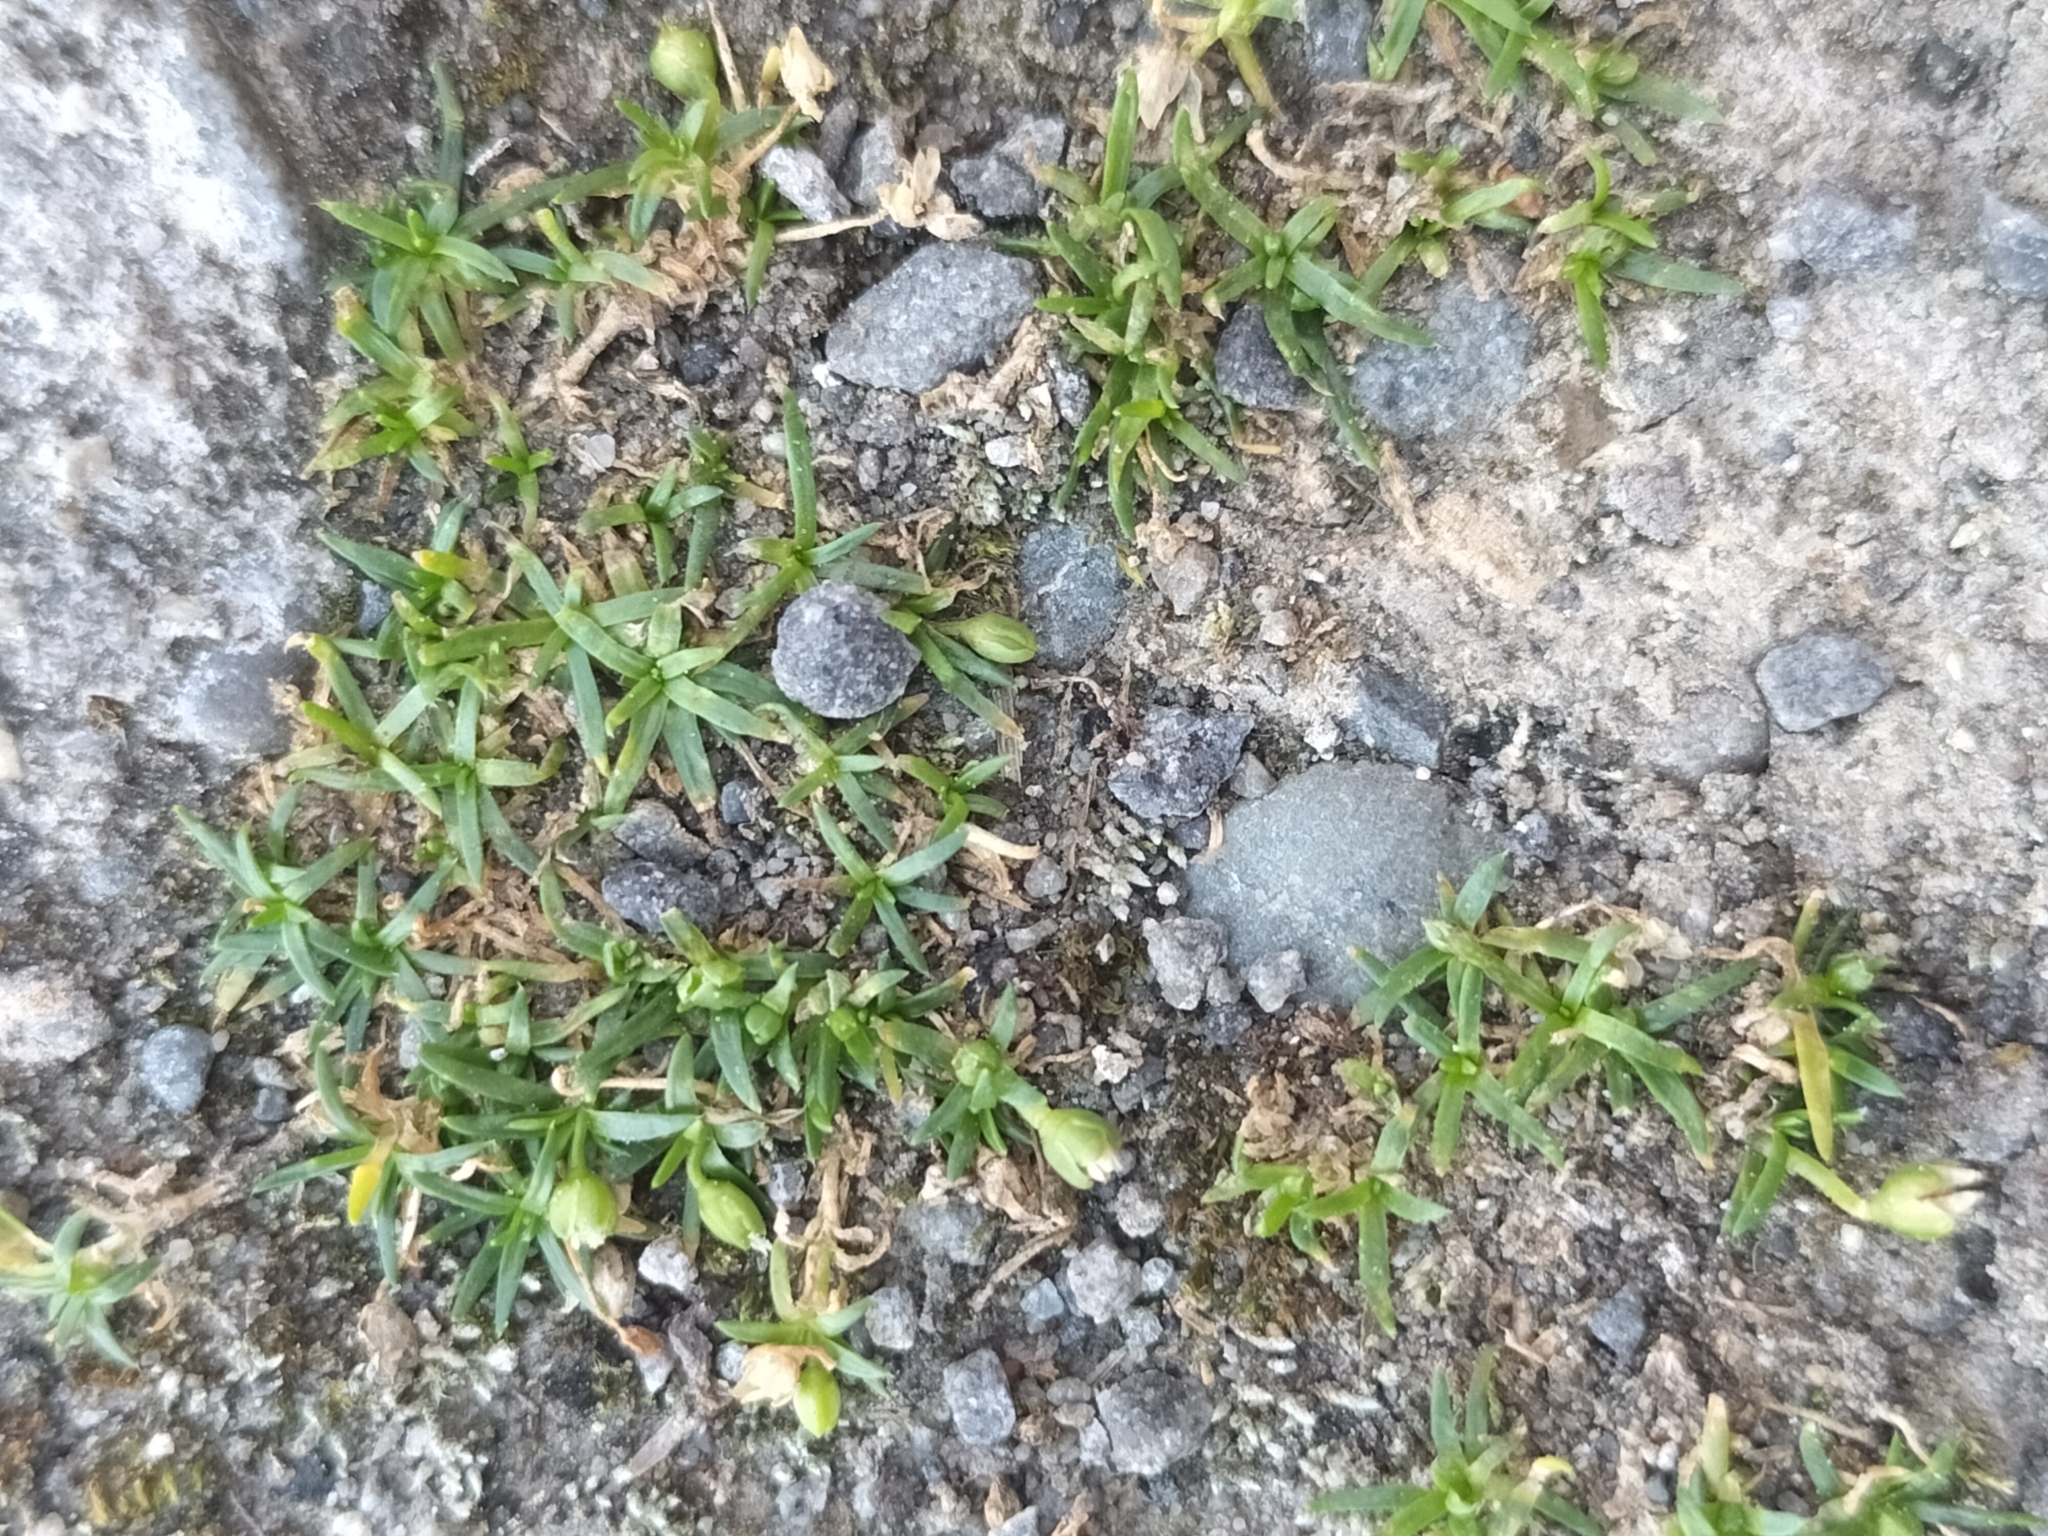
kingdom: Plantae
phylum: Tracheophyta
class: Magnoliopsida
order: Caryophyllales
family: Caryophyllaceae
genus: Sagina
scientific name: Sagina procumbens
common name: Procumbent pearlwort
